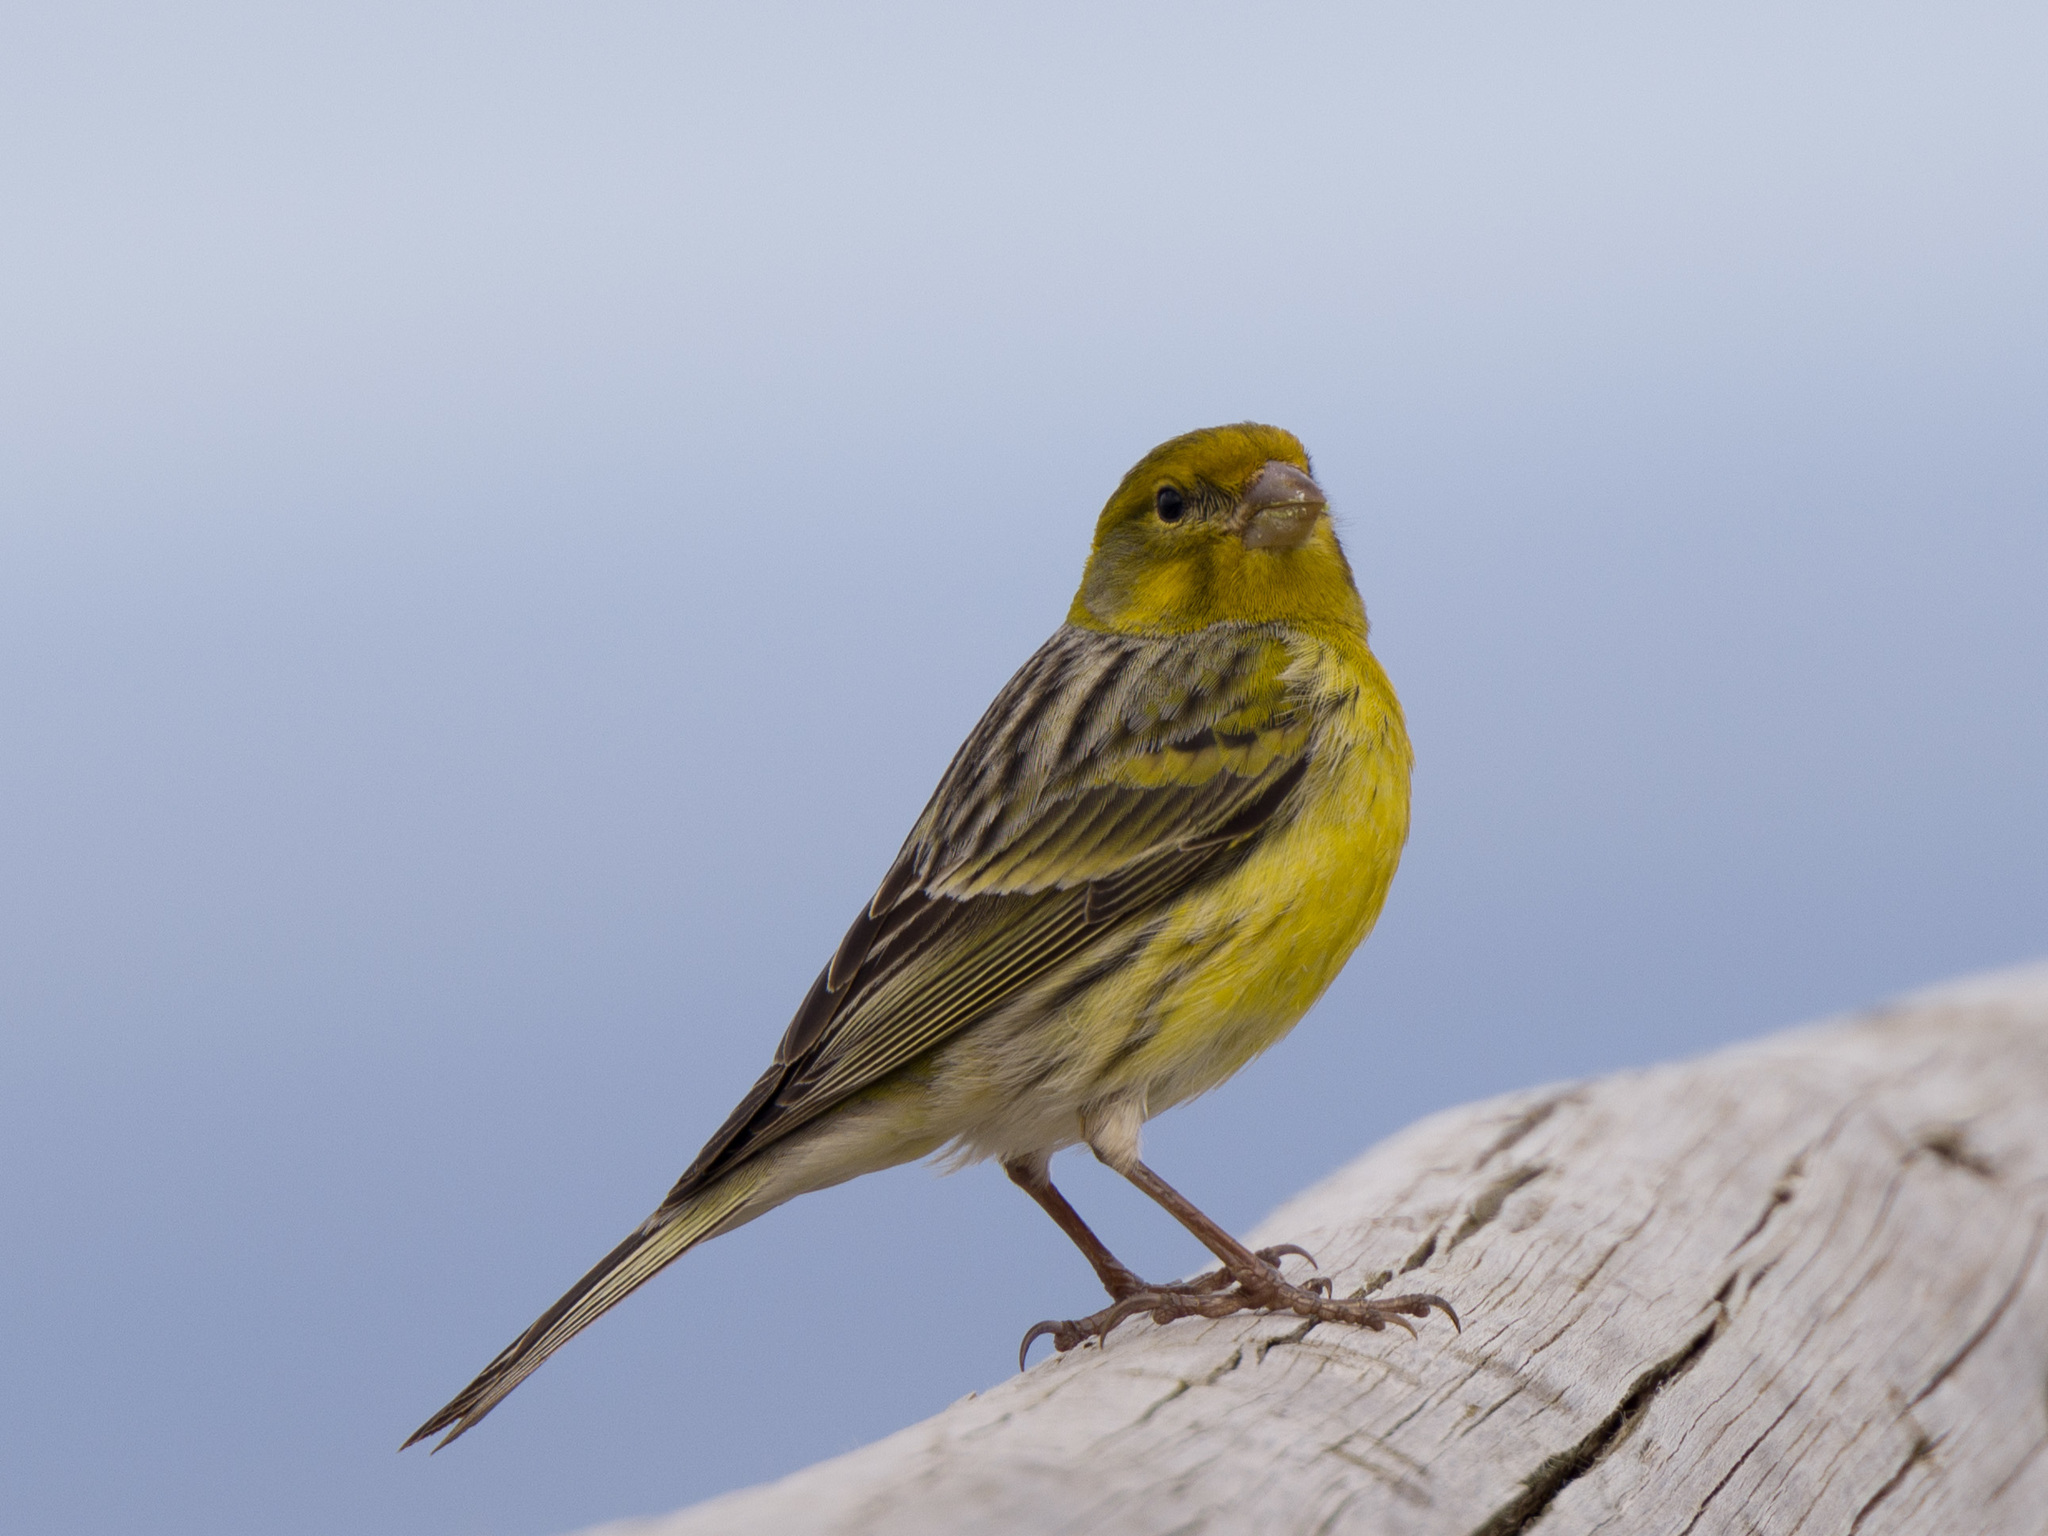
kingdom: Animalia
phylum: Chordata
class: Aves
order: Passeriformes
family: Fringillidae
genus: Serinus
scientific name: Serinus canaria
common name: Atlantic canary
